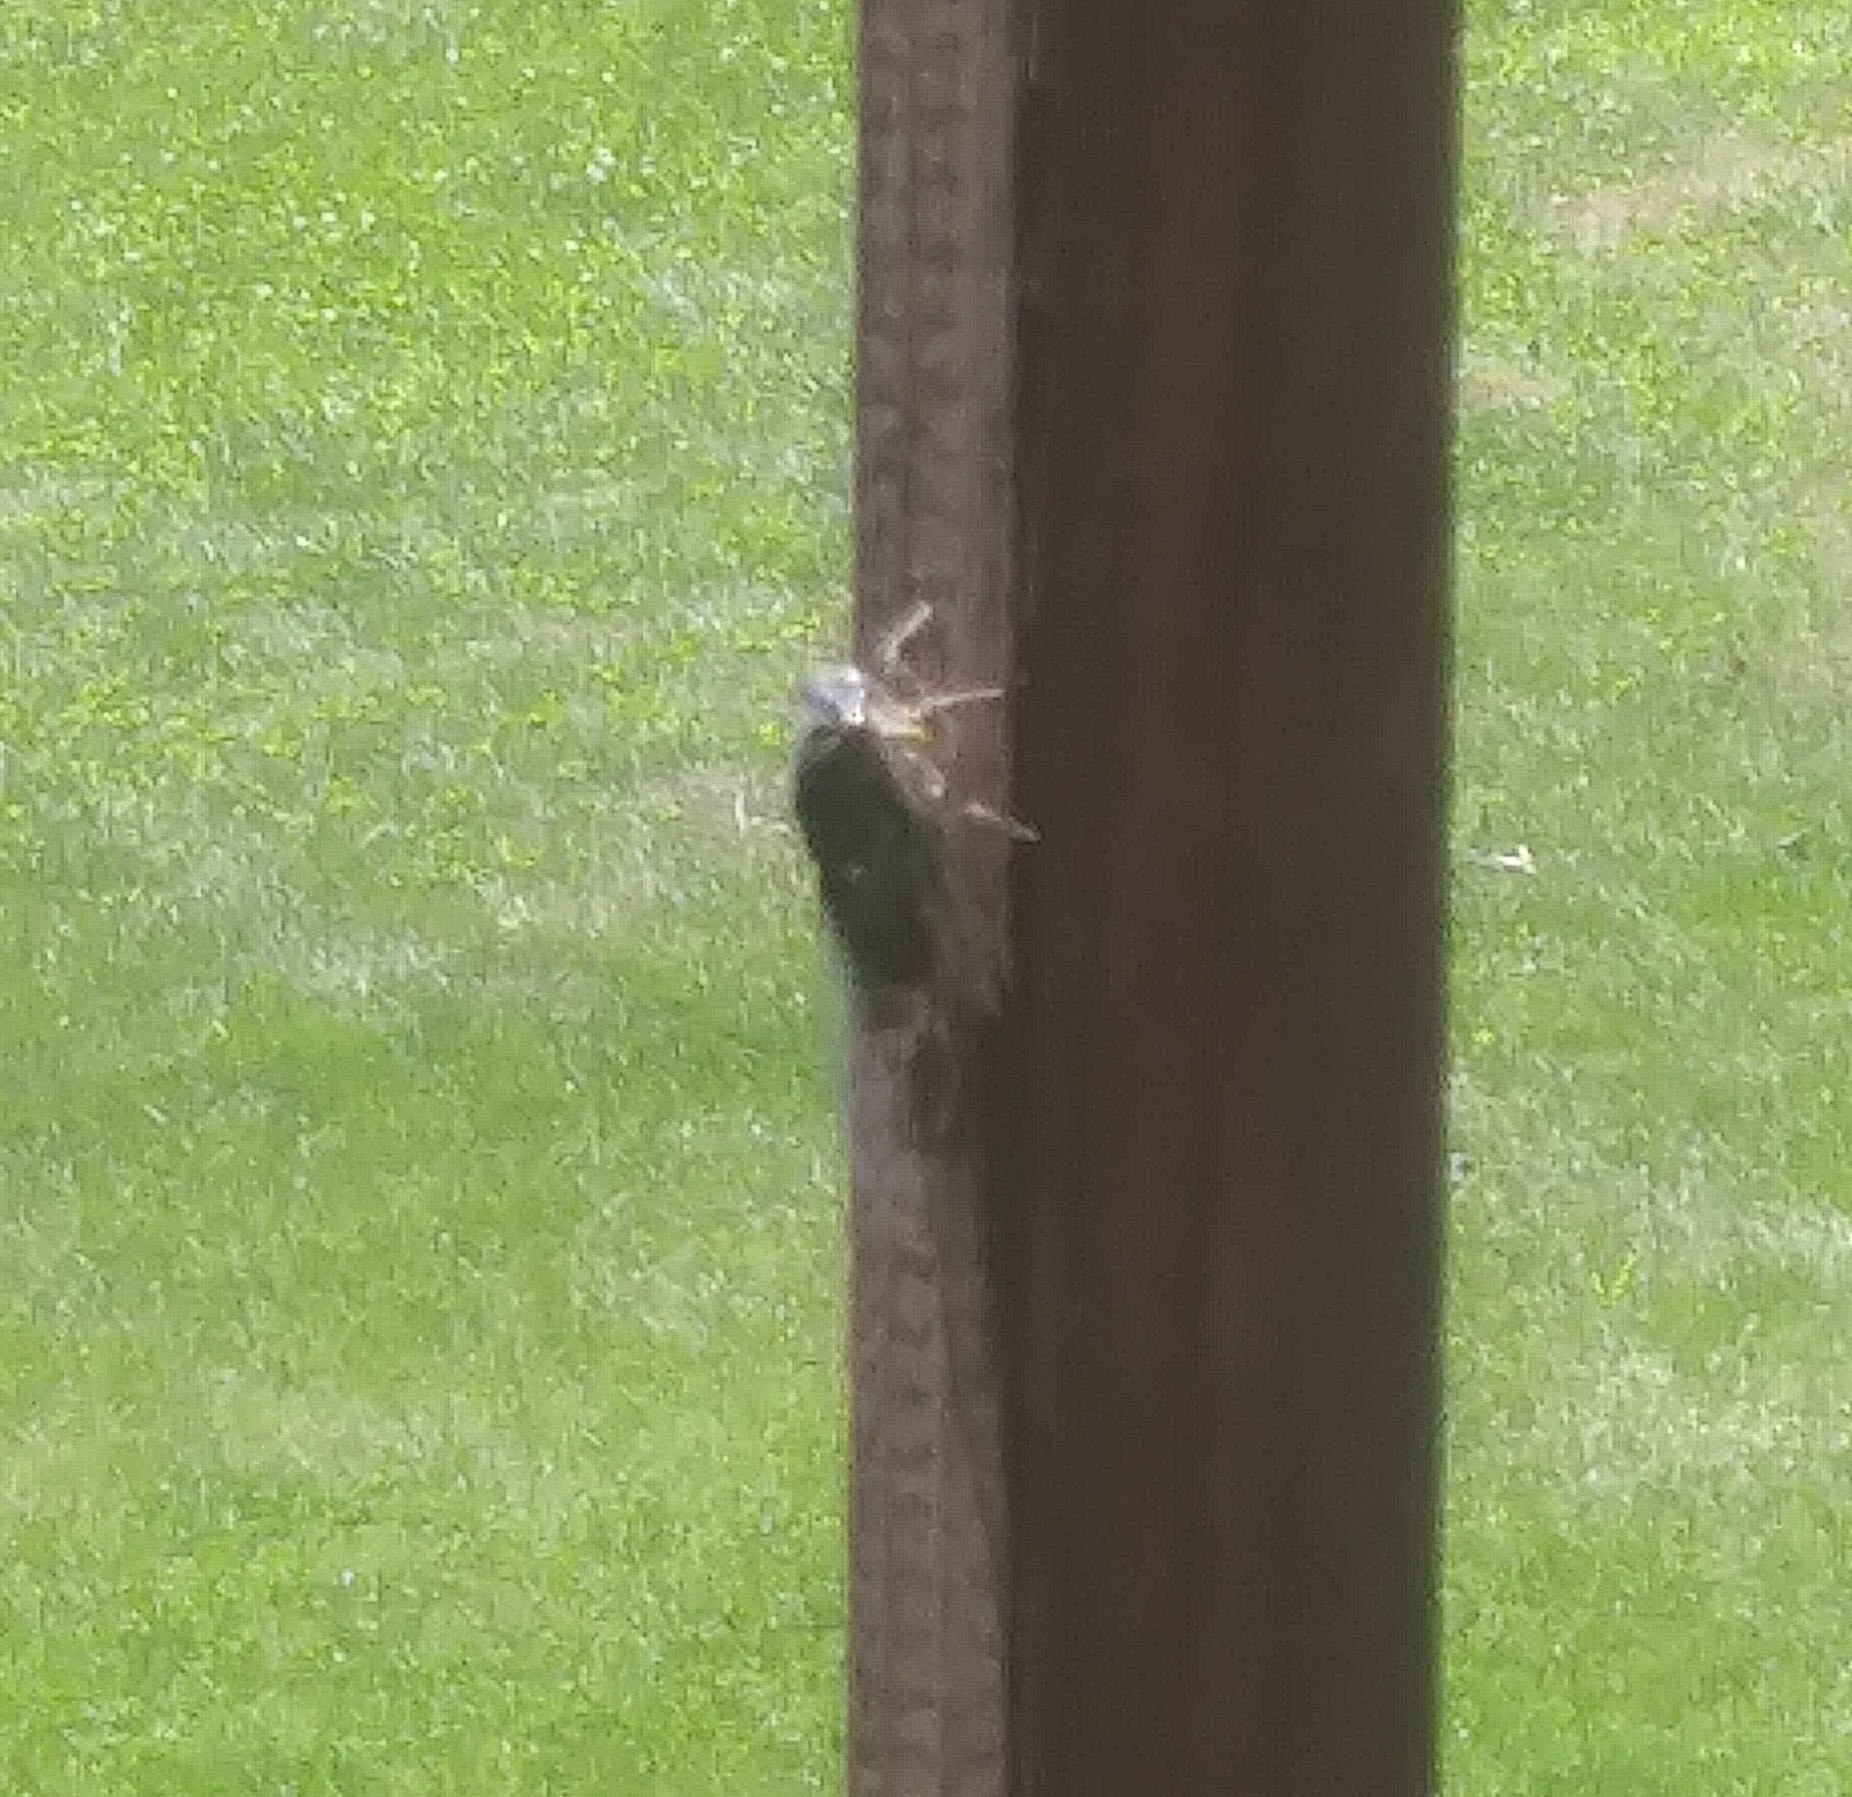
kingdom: Animalia
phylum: Arthropoda
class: Insecta
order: Hemiptera
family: Cicadidae
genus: Neotibicen
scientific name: Neotibicen canicularis
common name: God-day cicada
